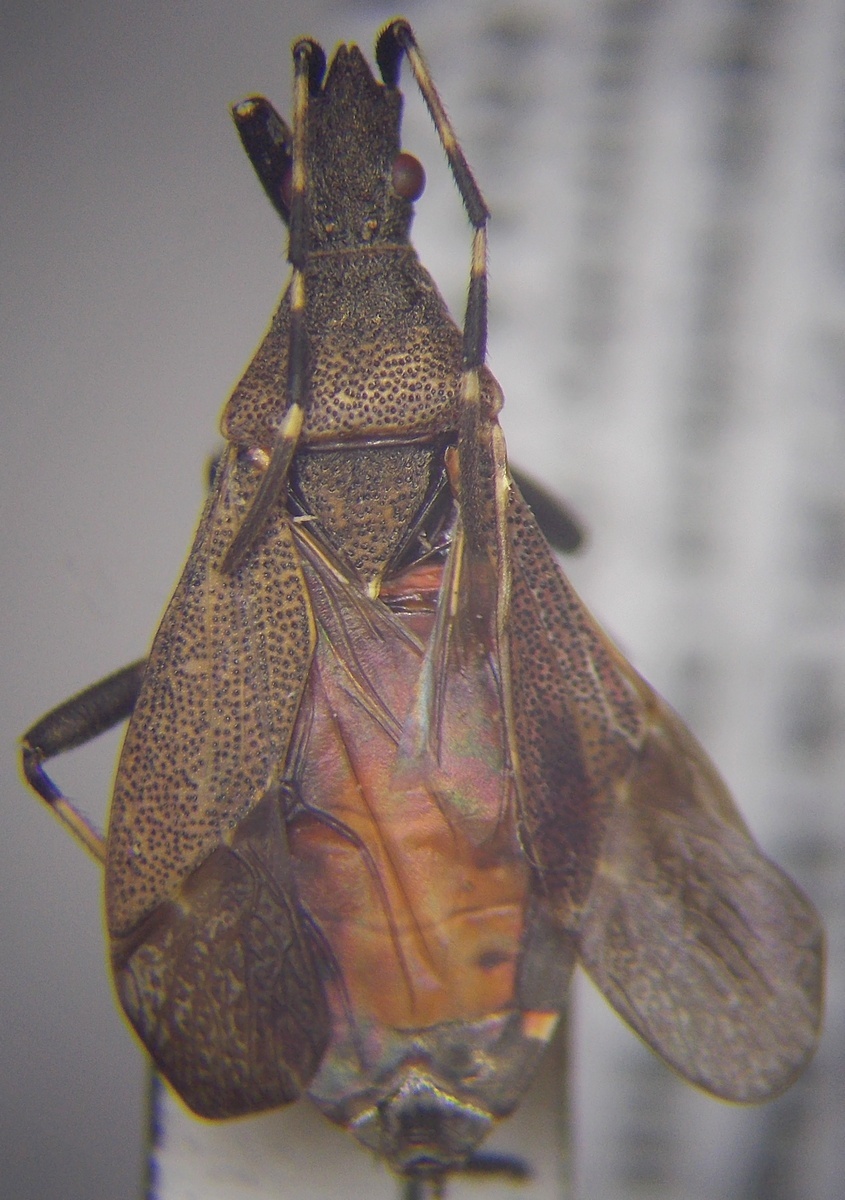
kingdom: Animalia
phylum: Arthropoda
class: Insecta
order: Hemiptera
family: Stenocephalidae
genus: Dicranocephalus
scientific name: Dicranocephalus medius
